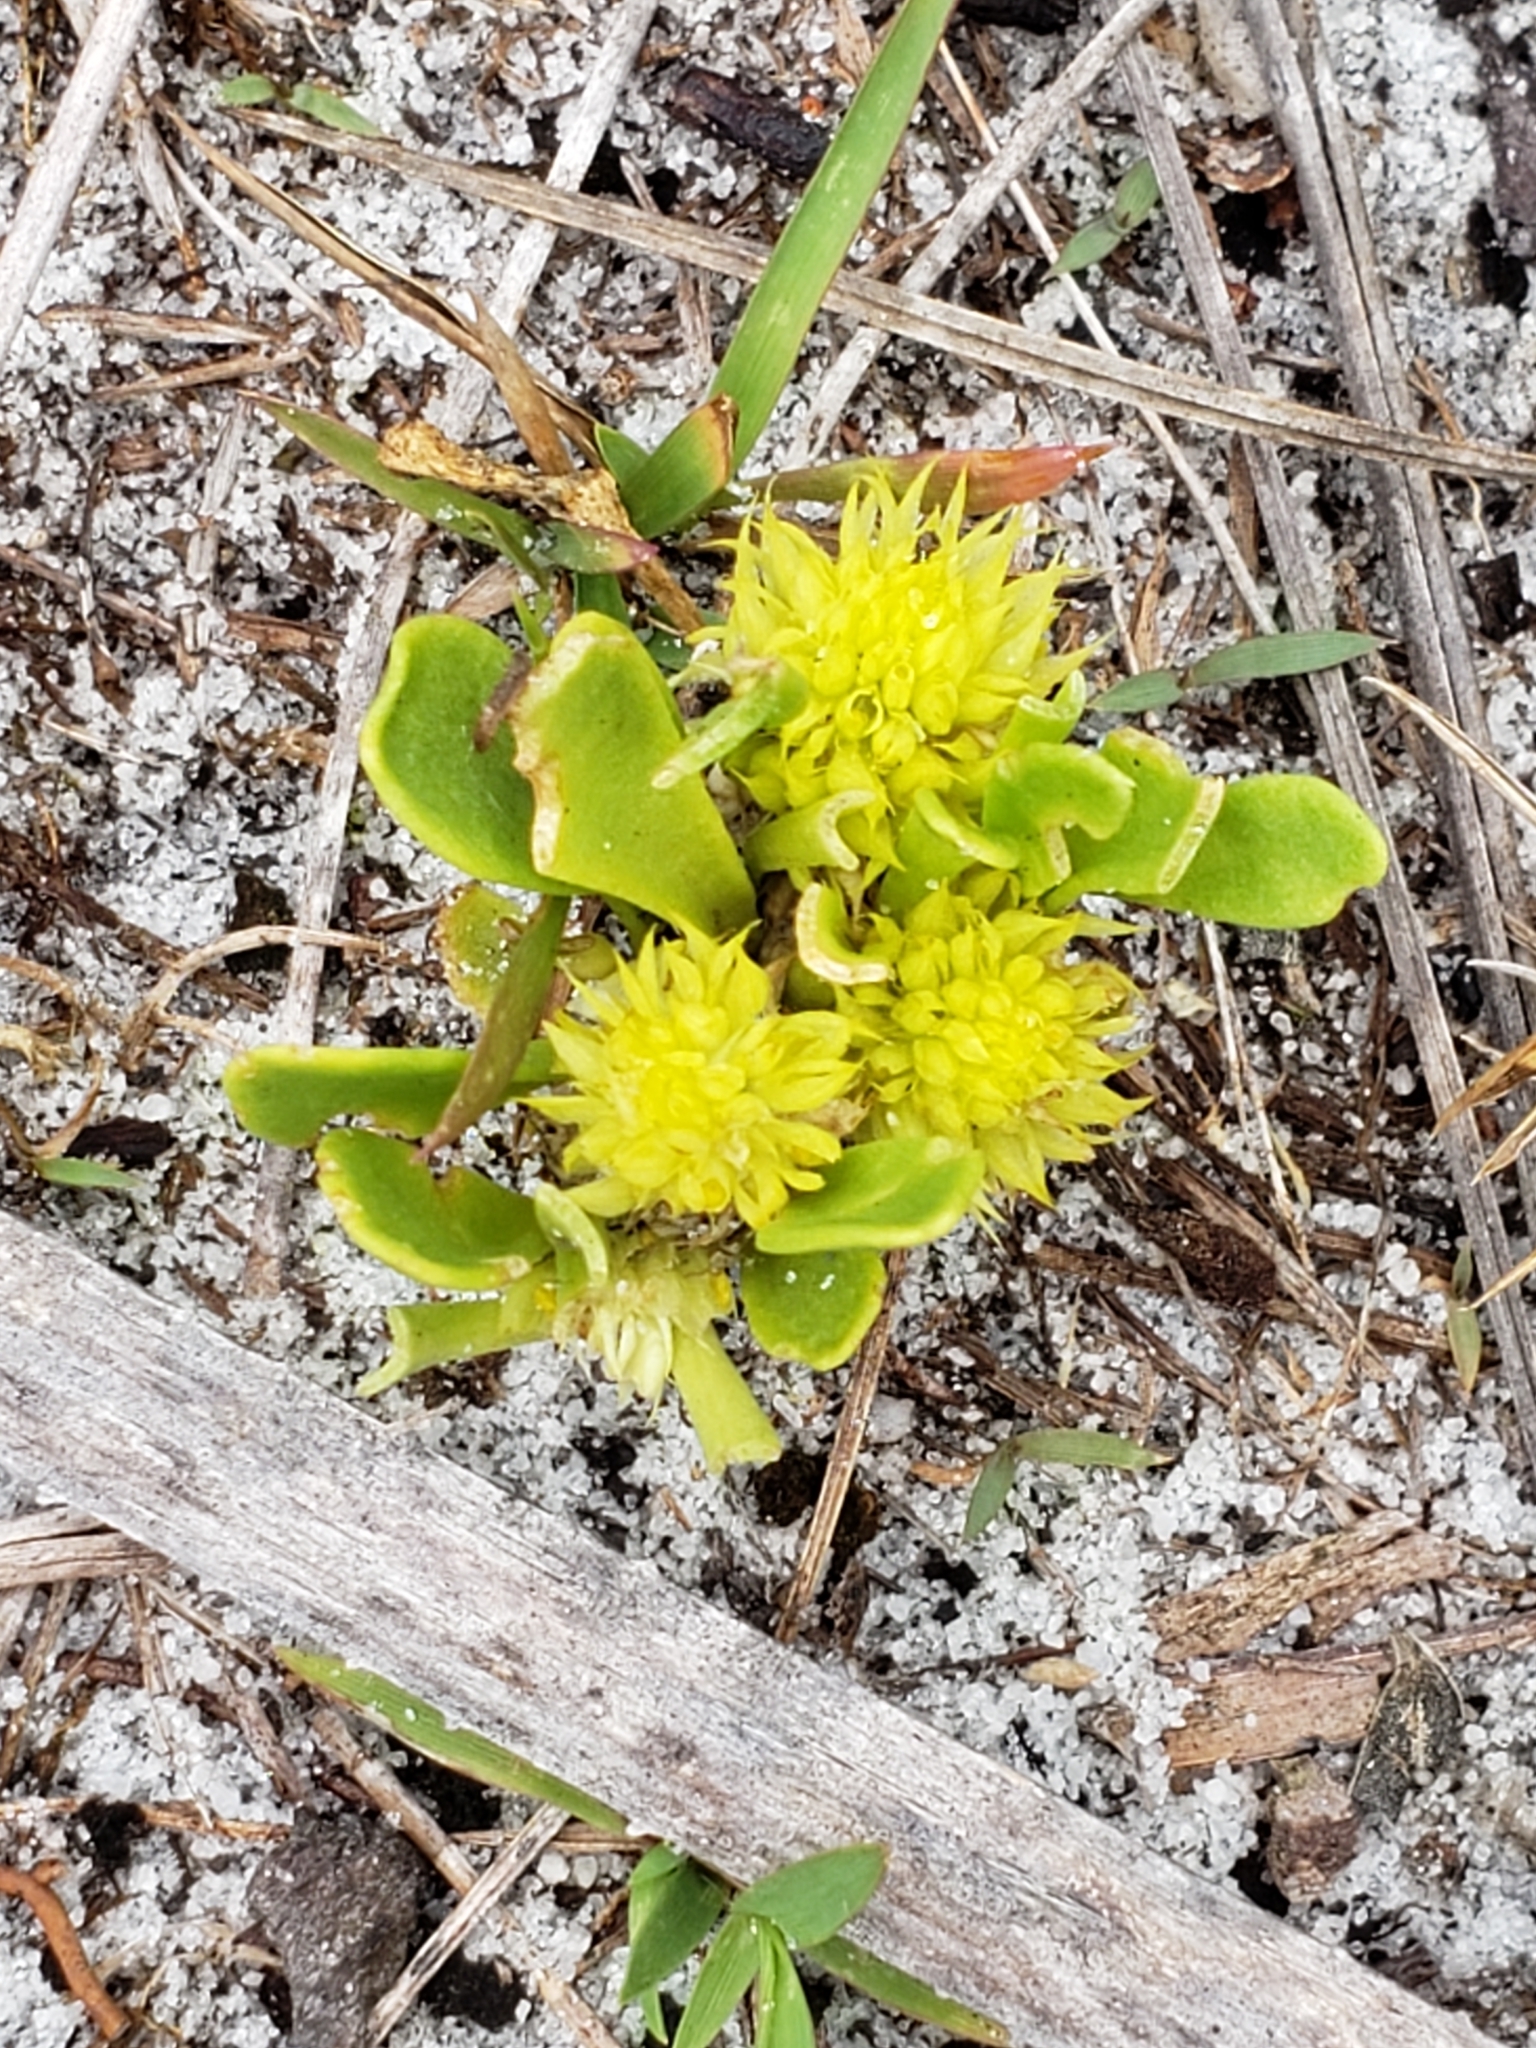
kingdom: Plantae
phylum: Tracheophyta
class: Magnoliopsida
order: Fabales
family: Polygalaceae
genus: Polygala
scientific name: Polygala nana
